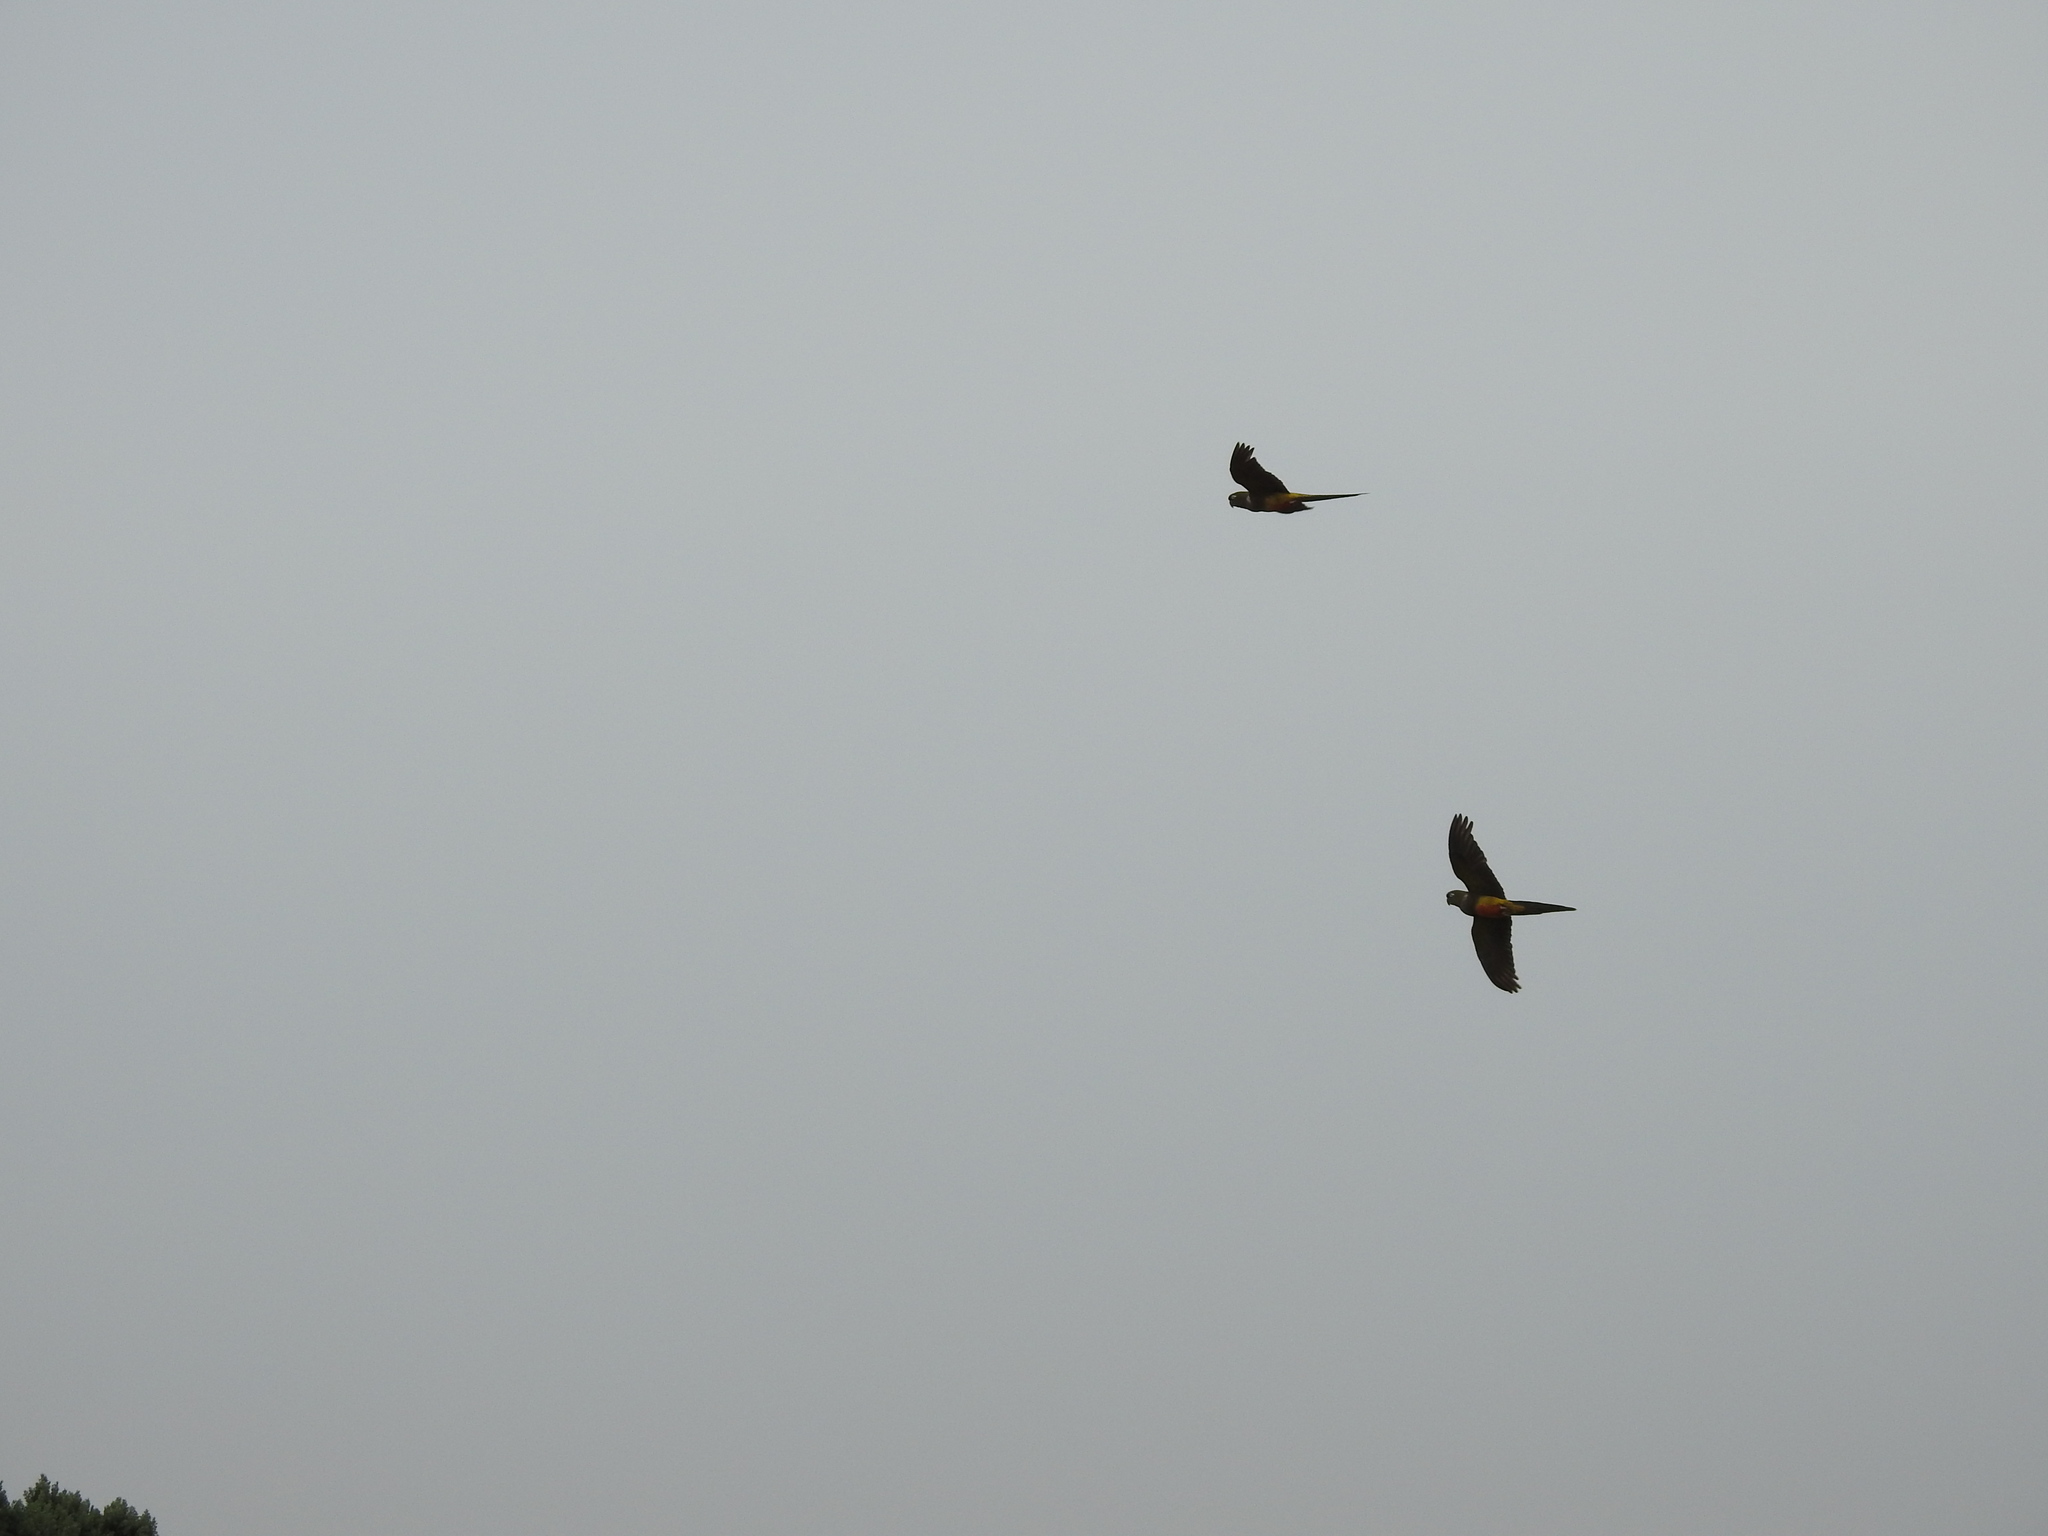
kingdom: Animalia
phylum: Chordata
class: Aves
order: Psittaciformes
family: Psittacidae
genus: Cyanoliseus
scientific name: Cyanoliseus patagonus
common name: Burrowing parrot
